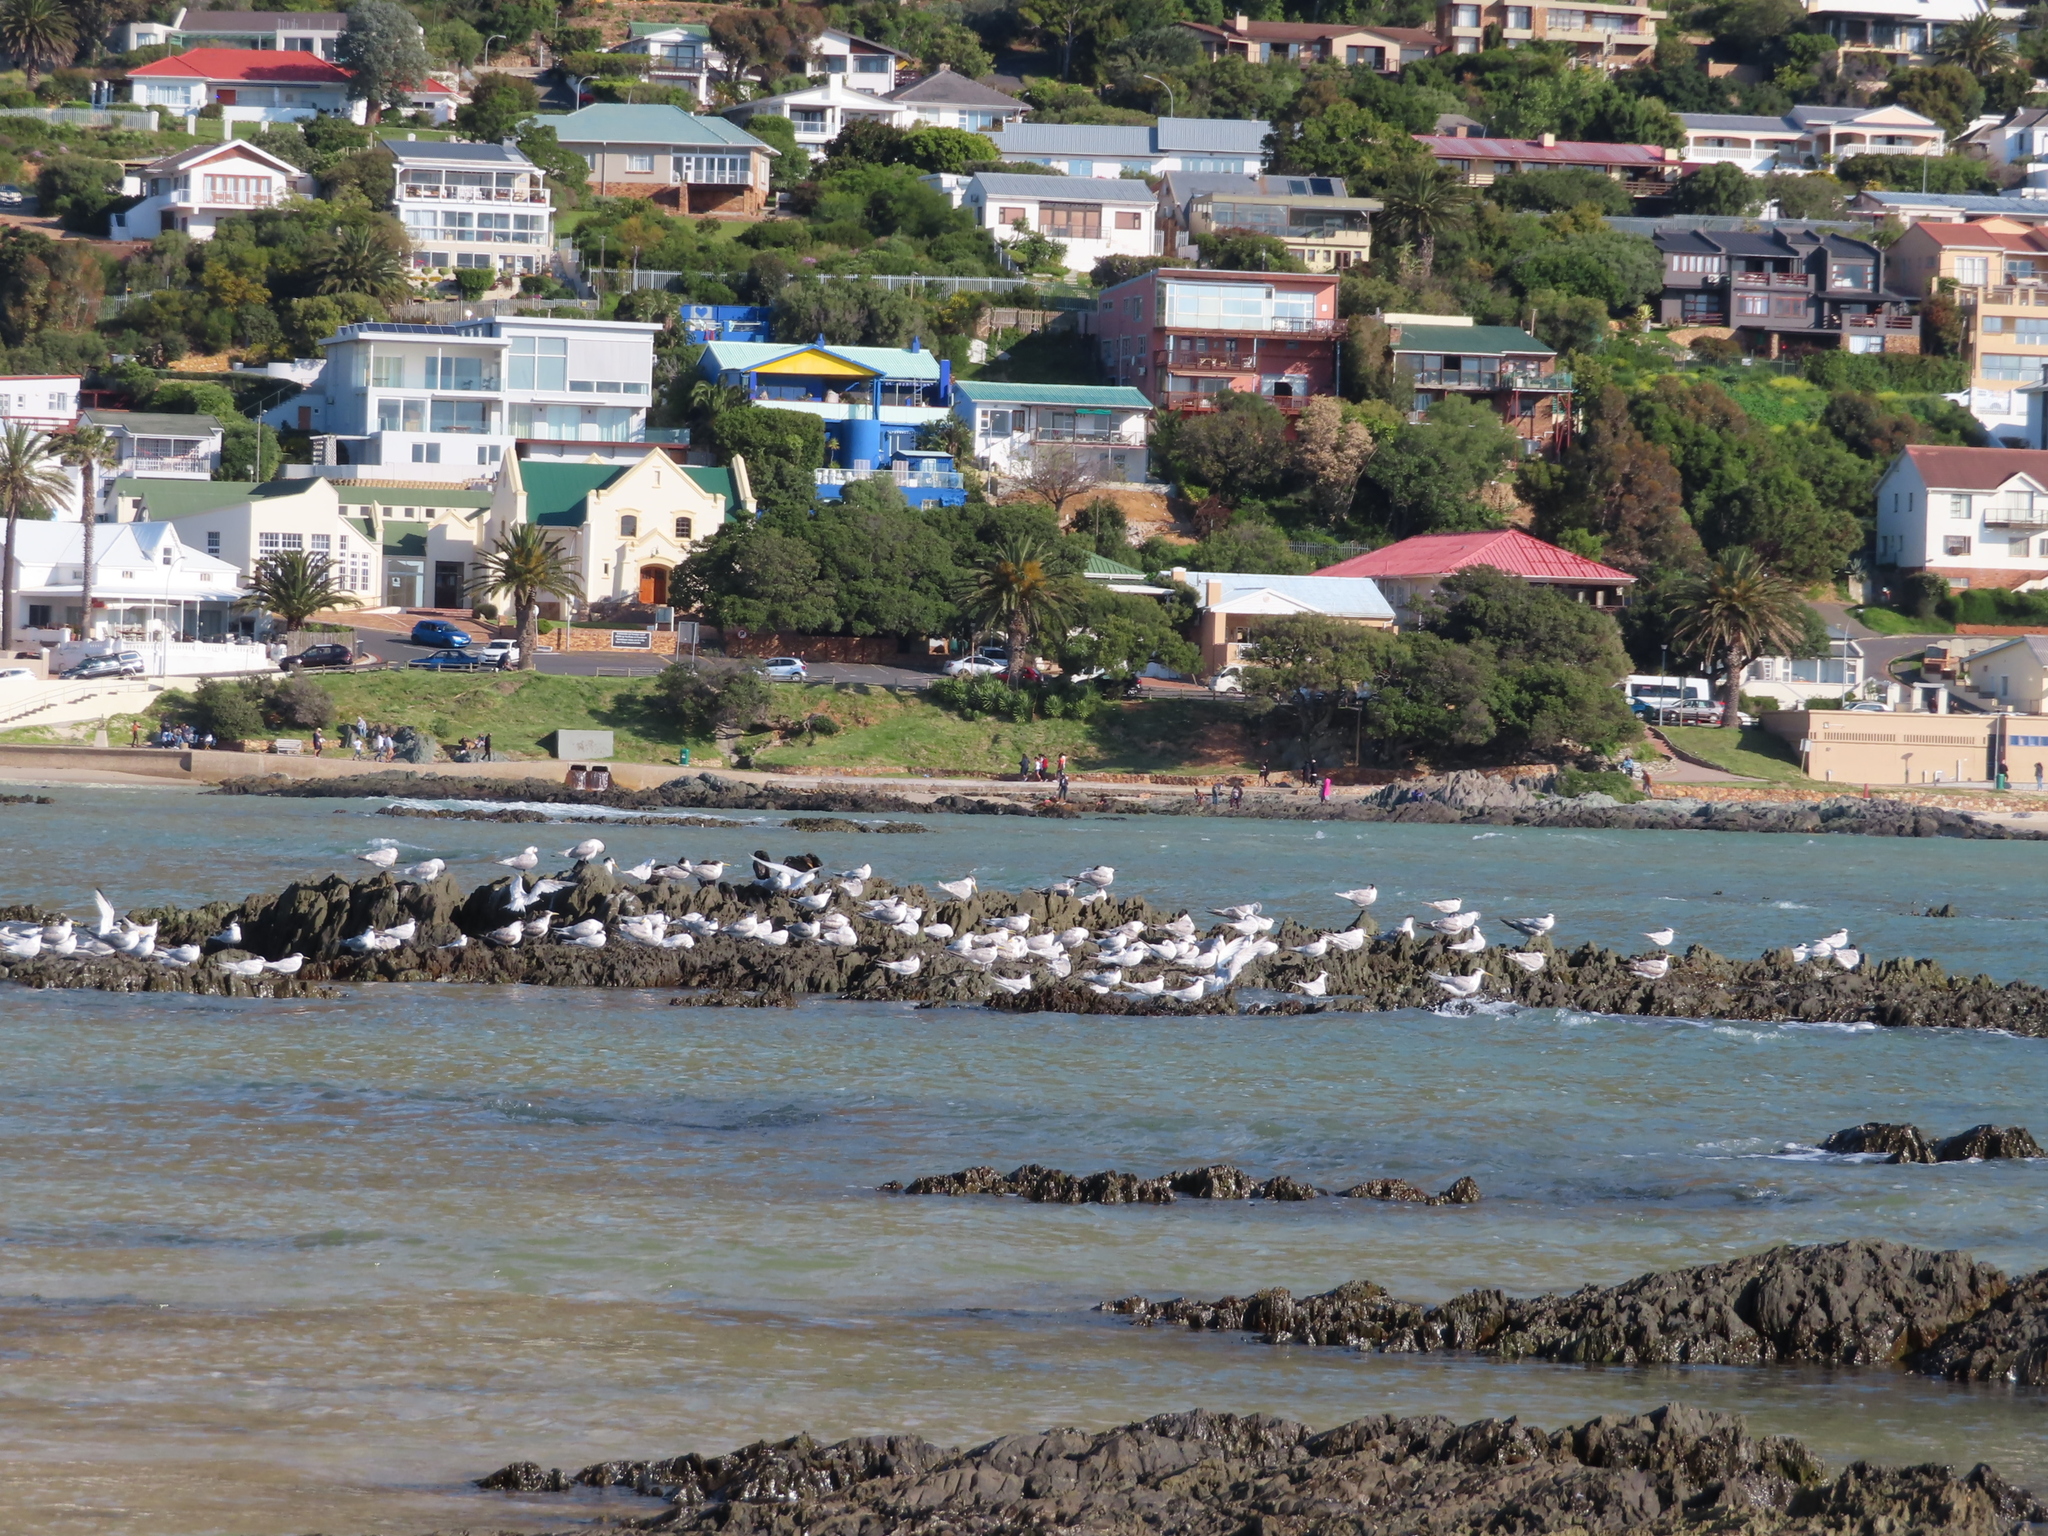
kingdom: Animalia
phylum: Chordata
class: Aves
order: Charadriiformes
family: Laridae
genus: Thalasseus
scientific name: Thalasseus bergii
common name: Greater crested tern
